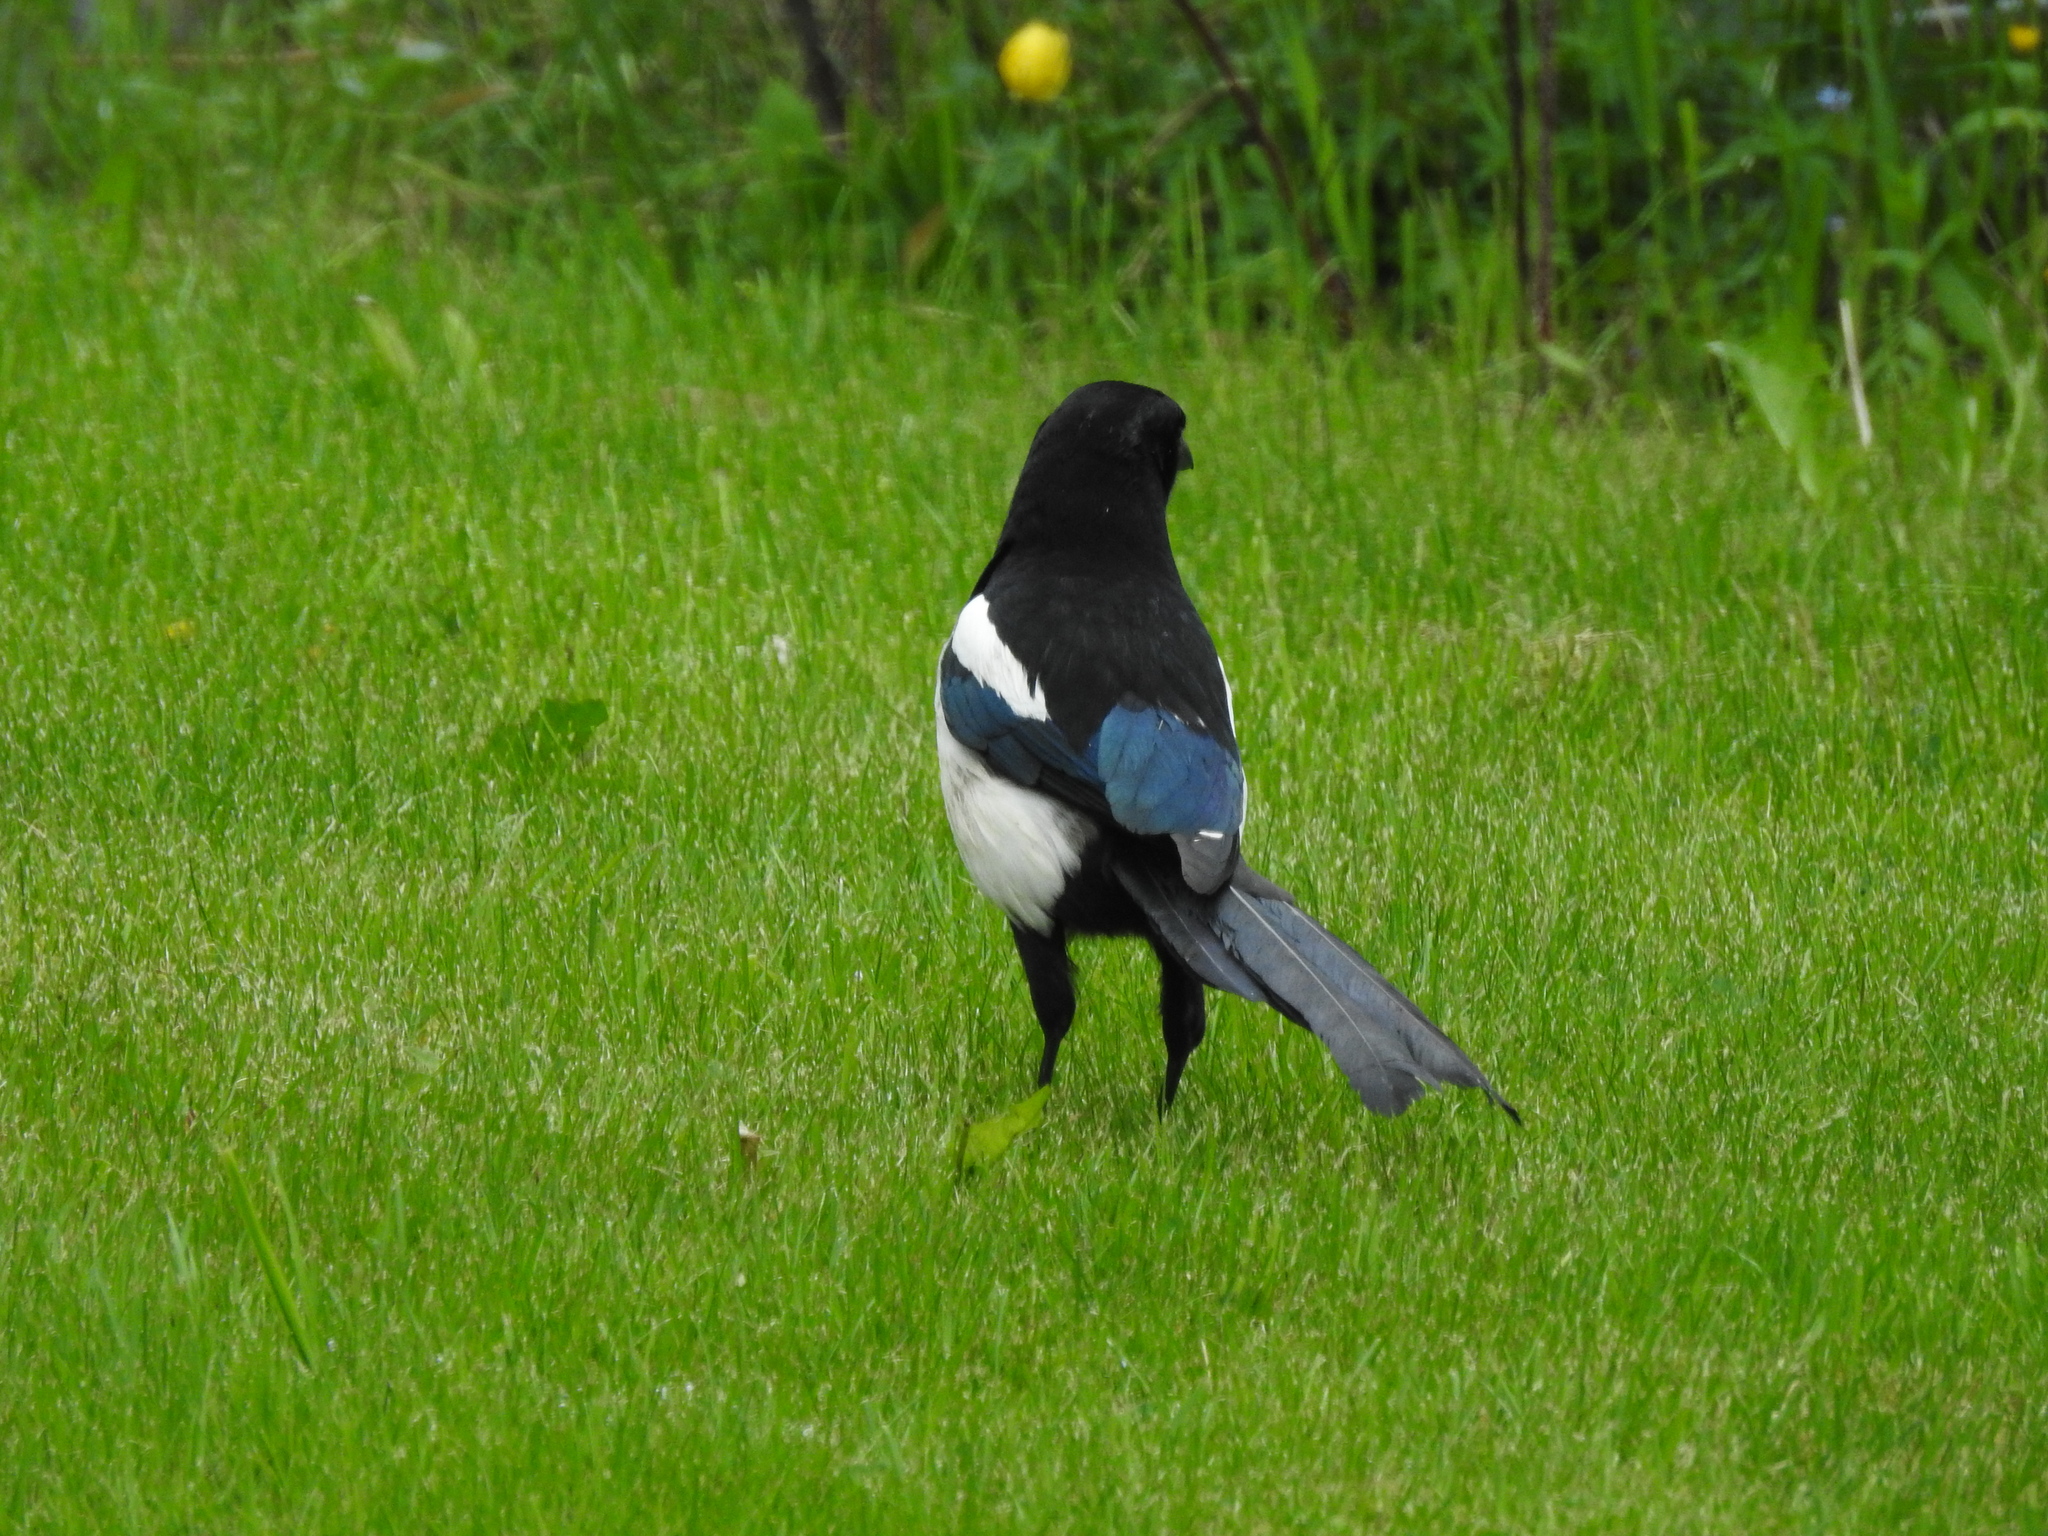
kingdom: Animalia
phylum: Chordata
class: Aves
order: Passeriformes
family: Corvidae
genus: Pica
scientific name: Pica pica
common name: Eurasian magpie
